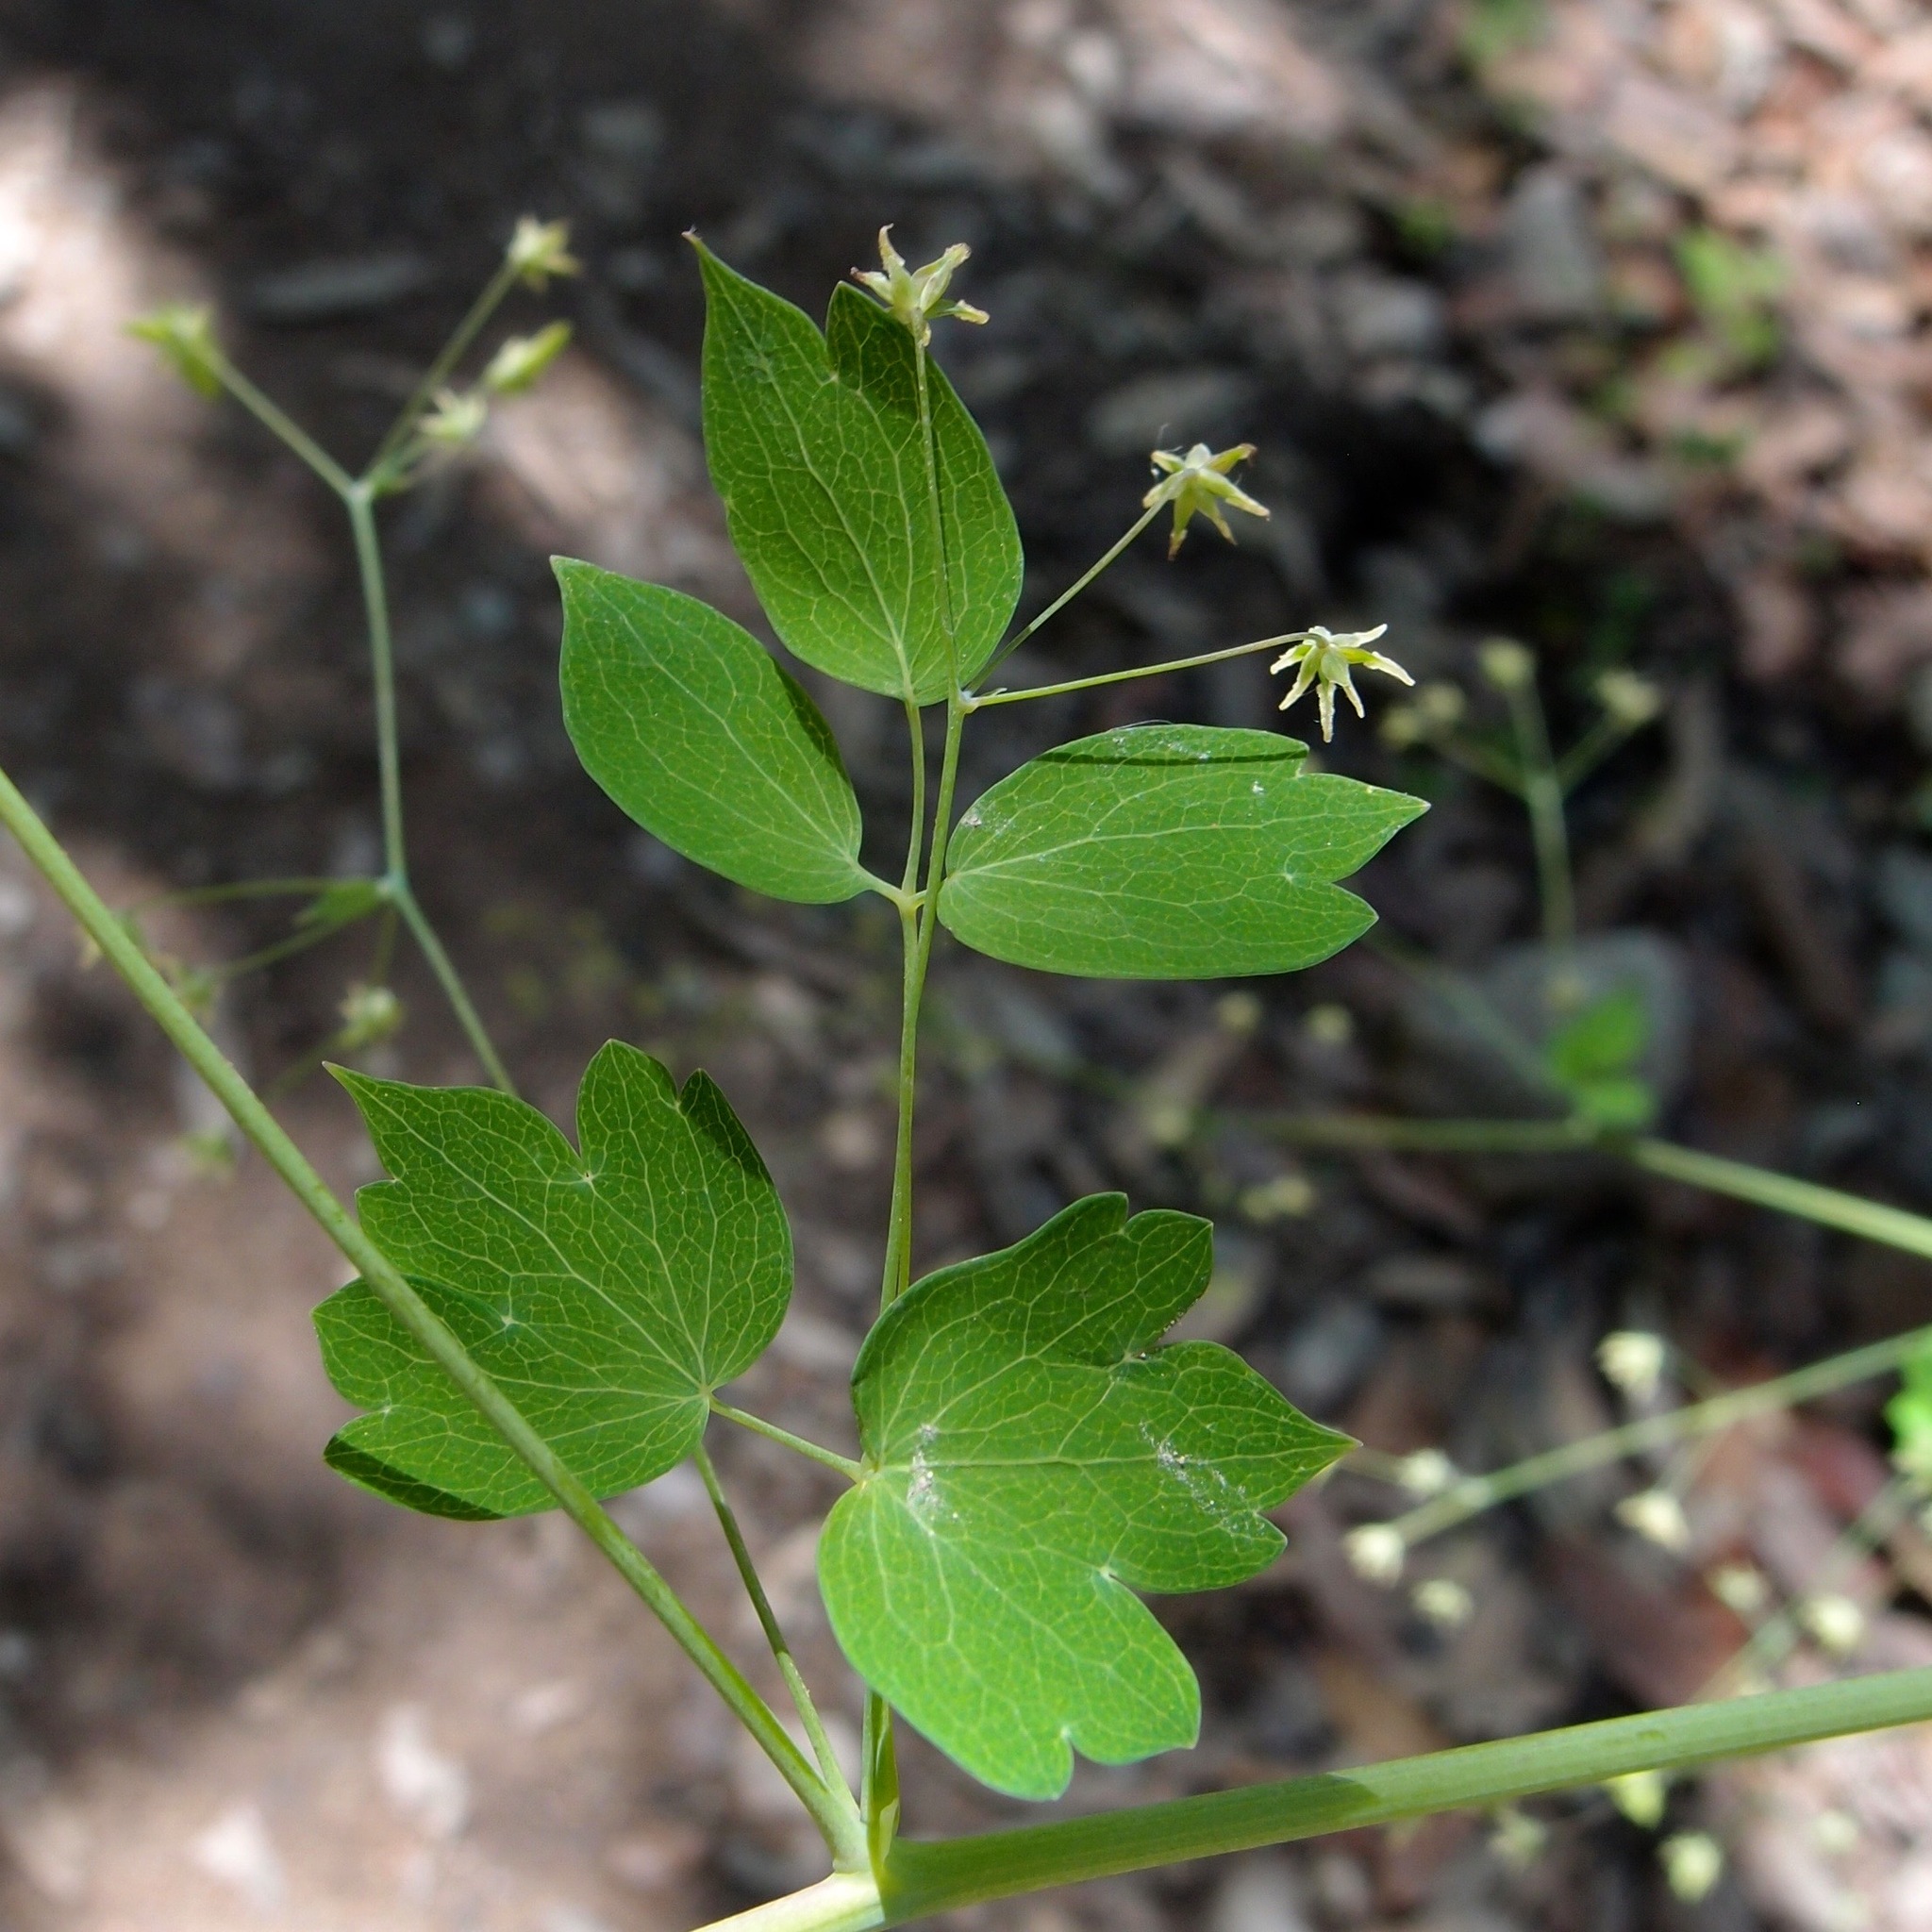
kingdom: Plantae
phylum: Tracheophyta
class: Magnoliopsida
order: Ranunculales
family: Ranunculaceae
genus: Thalictrum
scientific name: Thalictrum fendleri
